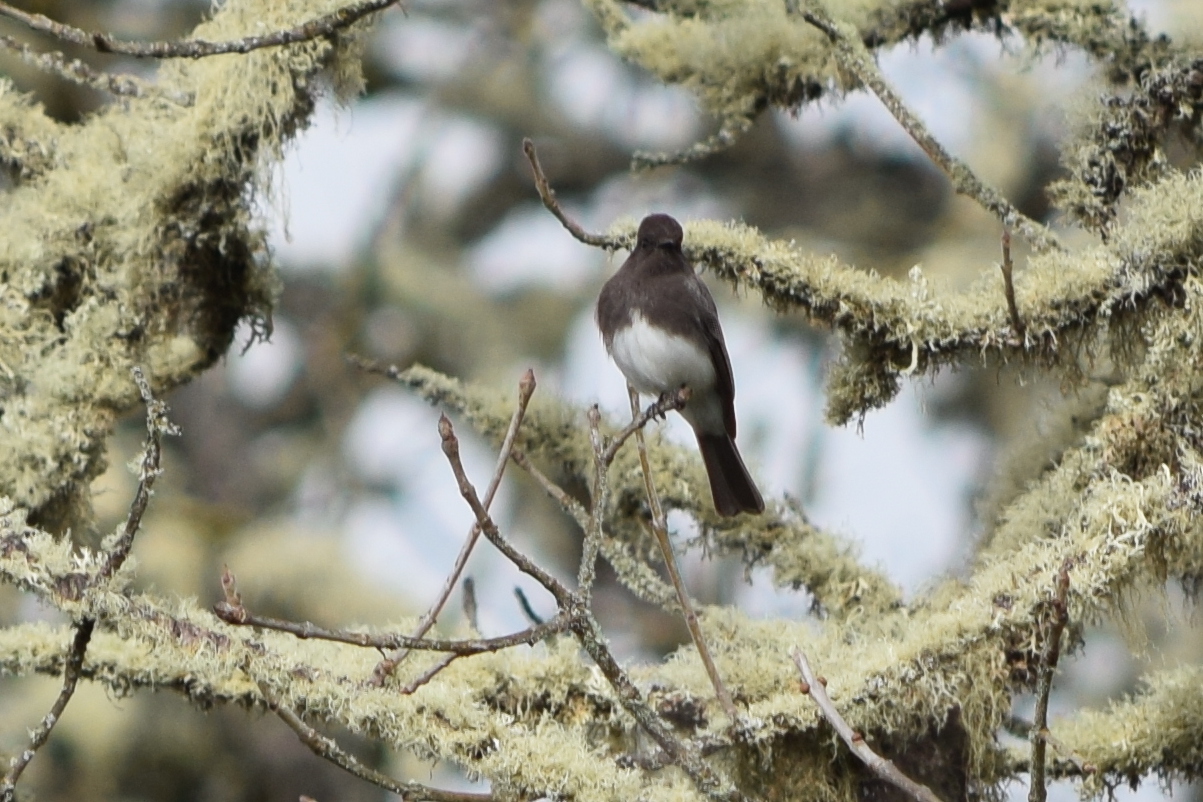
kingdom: Animalia
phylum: Chordata
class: Aves
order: Passeriformes
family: Tyrannidae
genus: Sayornis
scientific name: Sayornis nigricans
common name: Black phoebe
